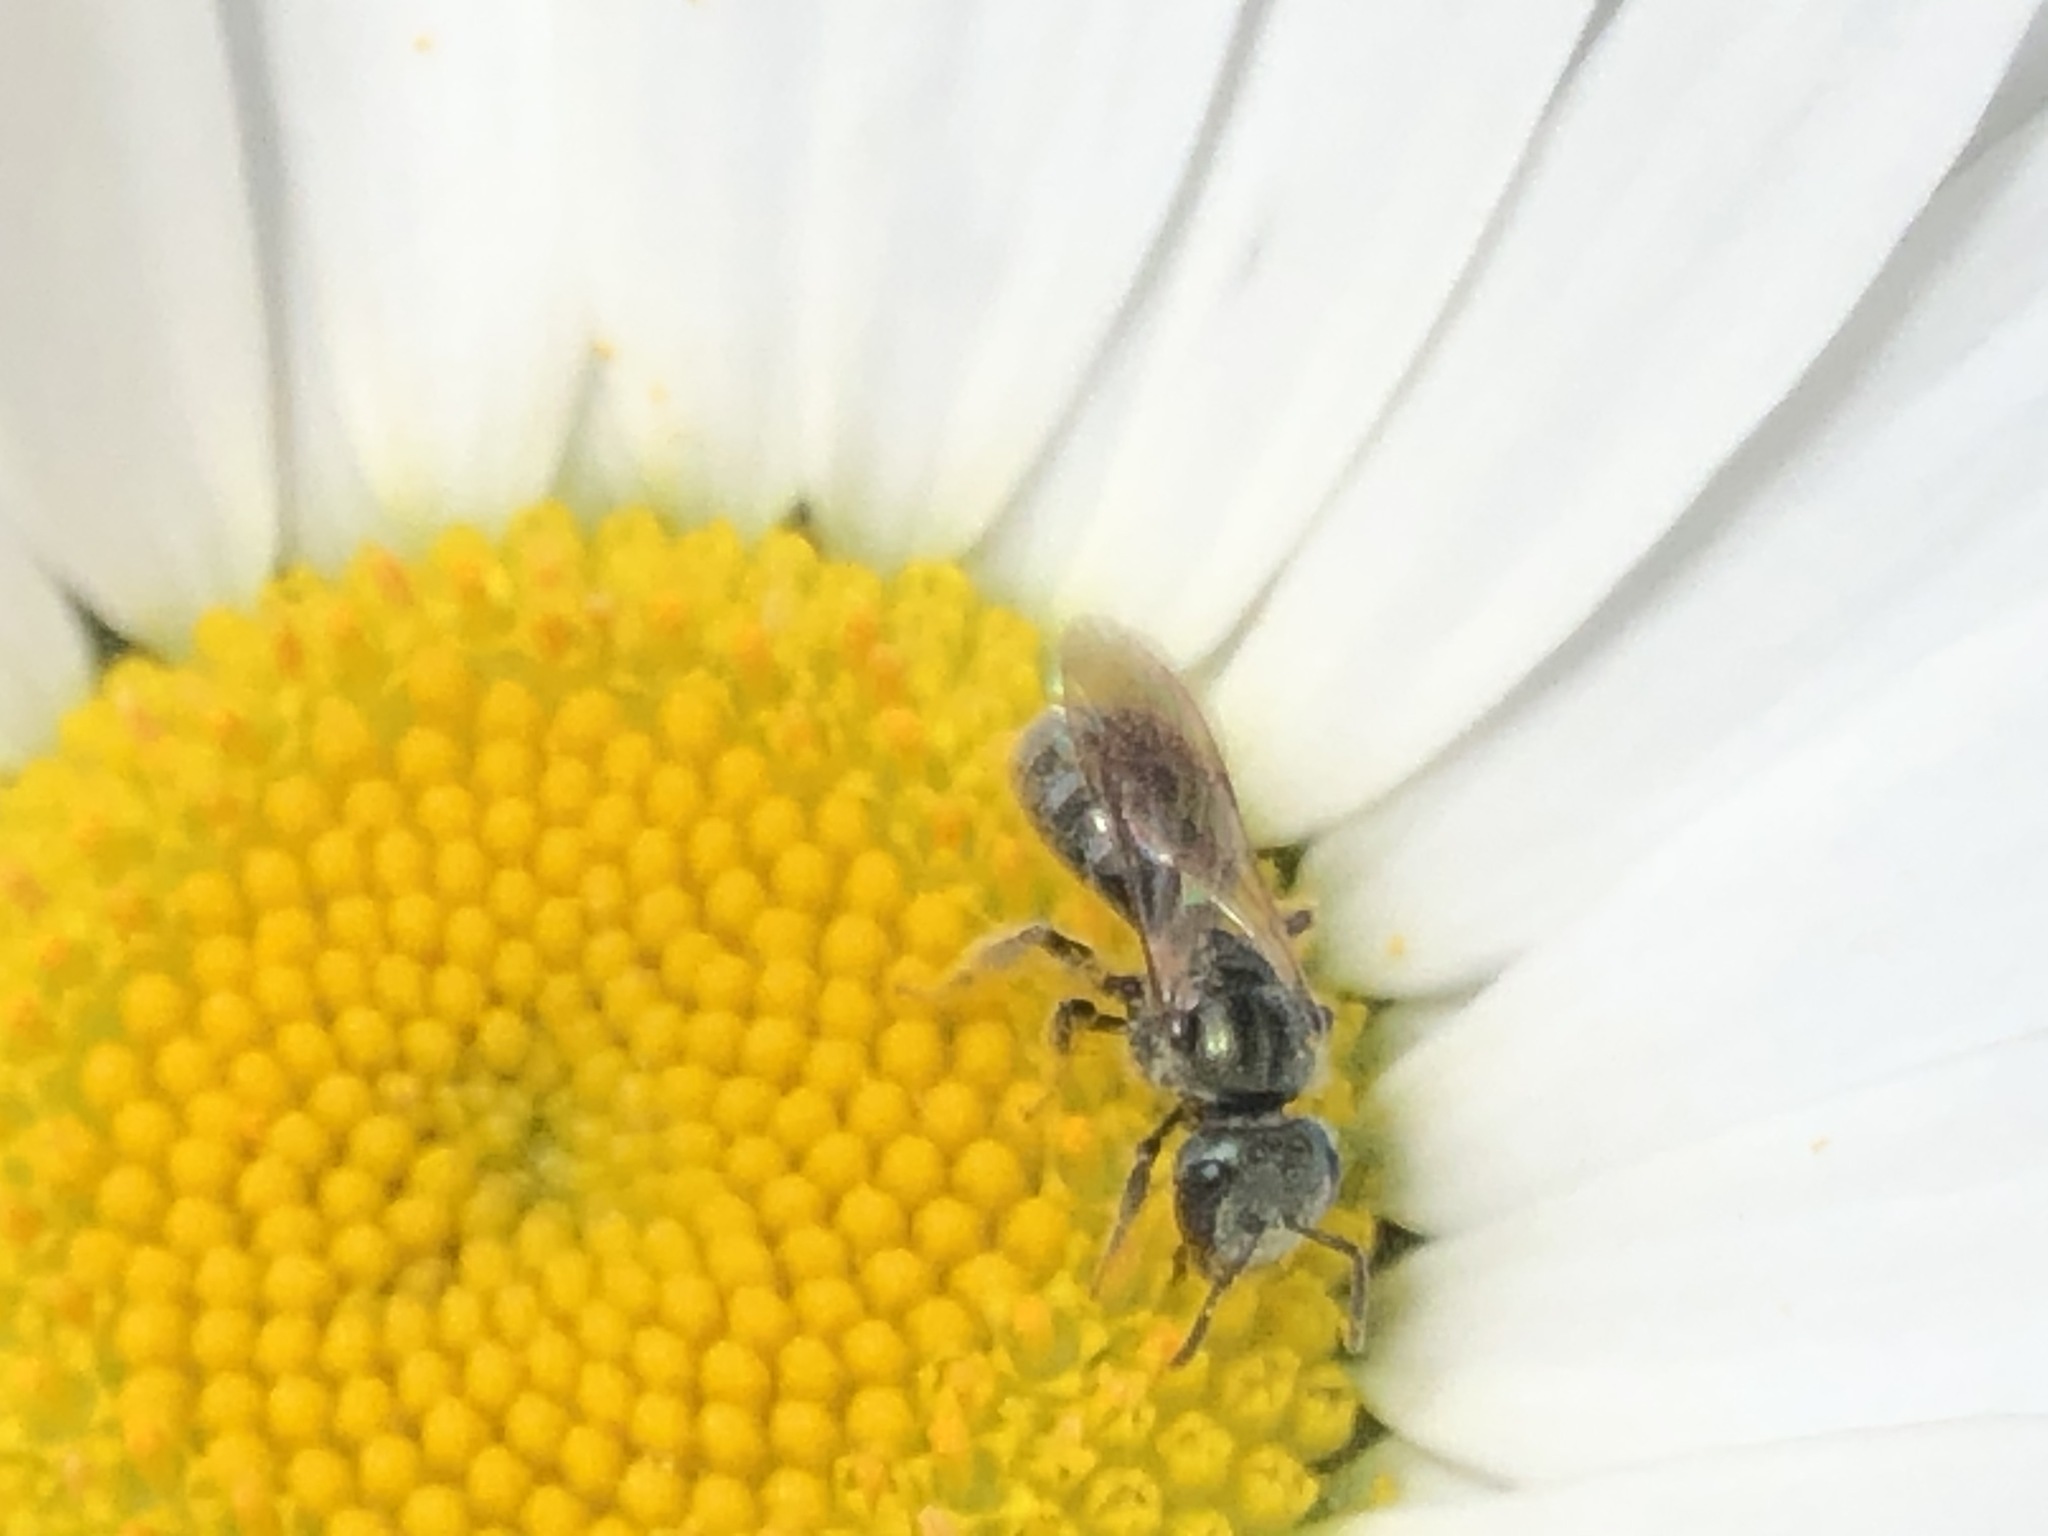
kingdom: Animalia
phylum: Arthropoda
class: Insecta
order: Hymenoptera
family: Halictidae
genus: Dialictus
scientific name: Dialictus
